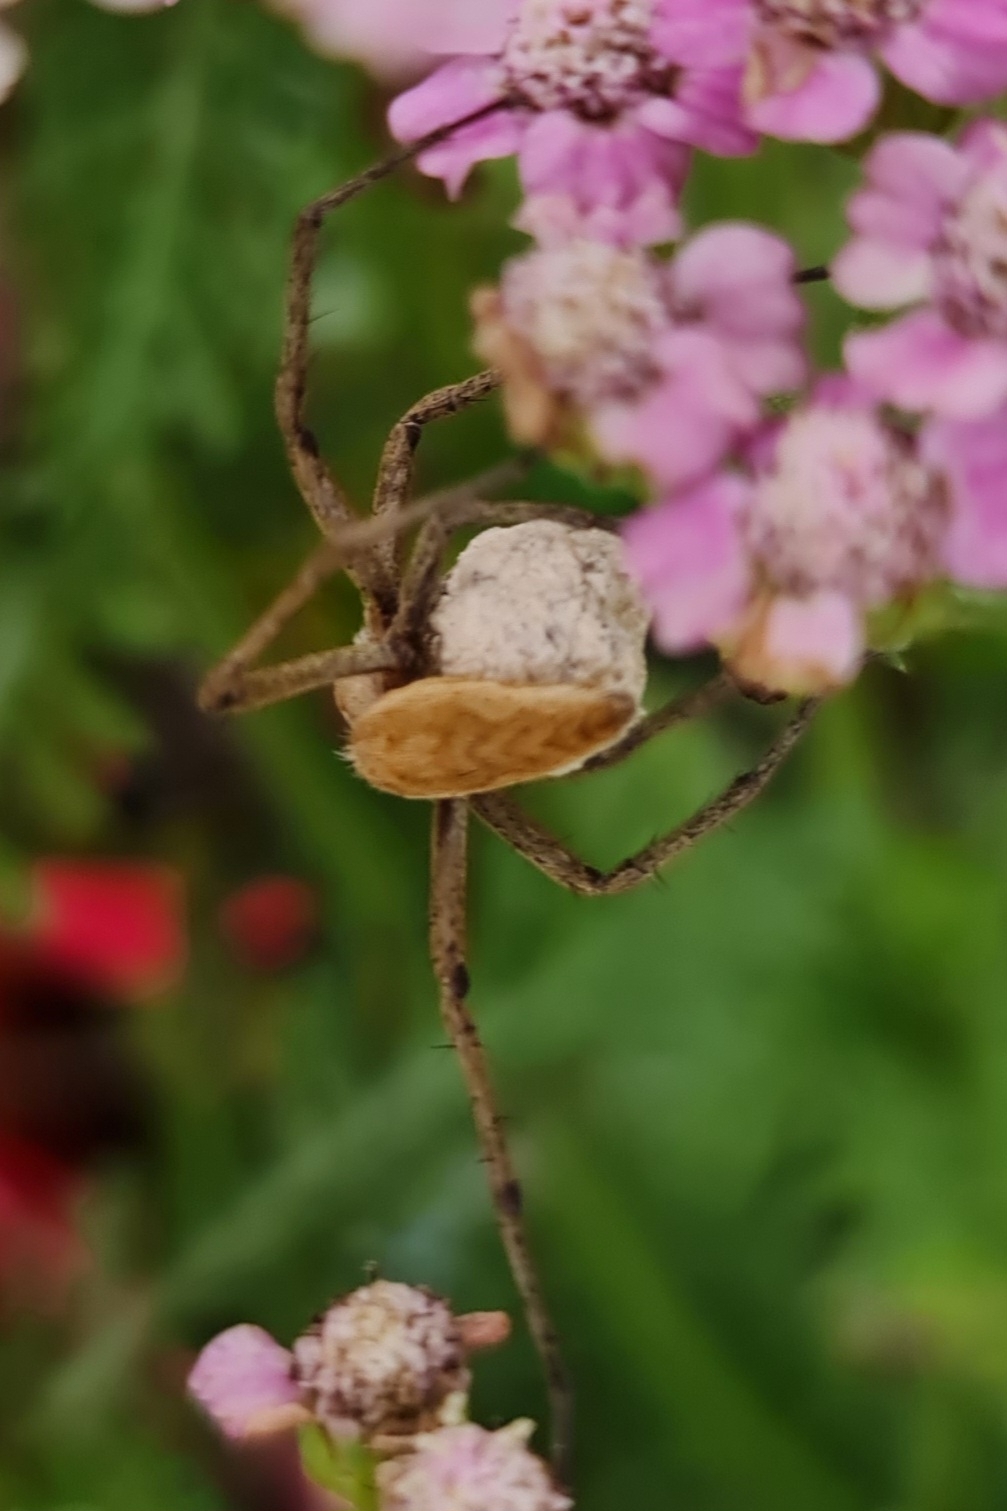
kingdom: Animalia
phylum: Arthropoda
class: Arachnida
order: Araneae
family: Pisauridae
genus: Pisaura
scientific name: Pisaura mirabilis
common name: Tent spider
